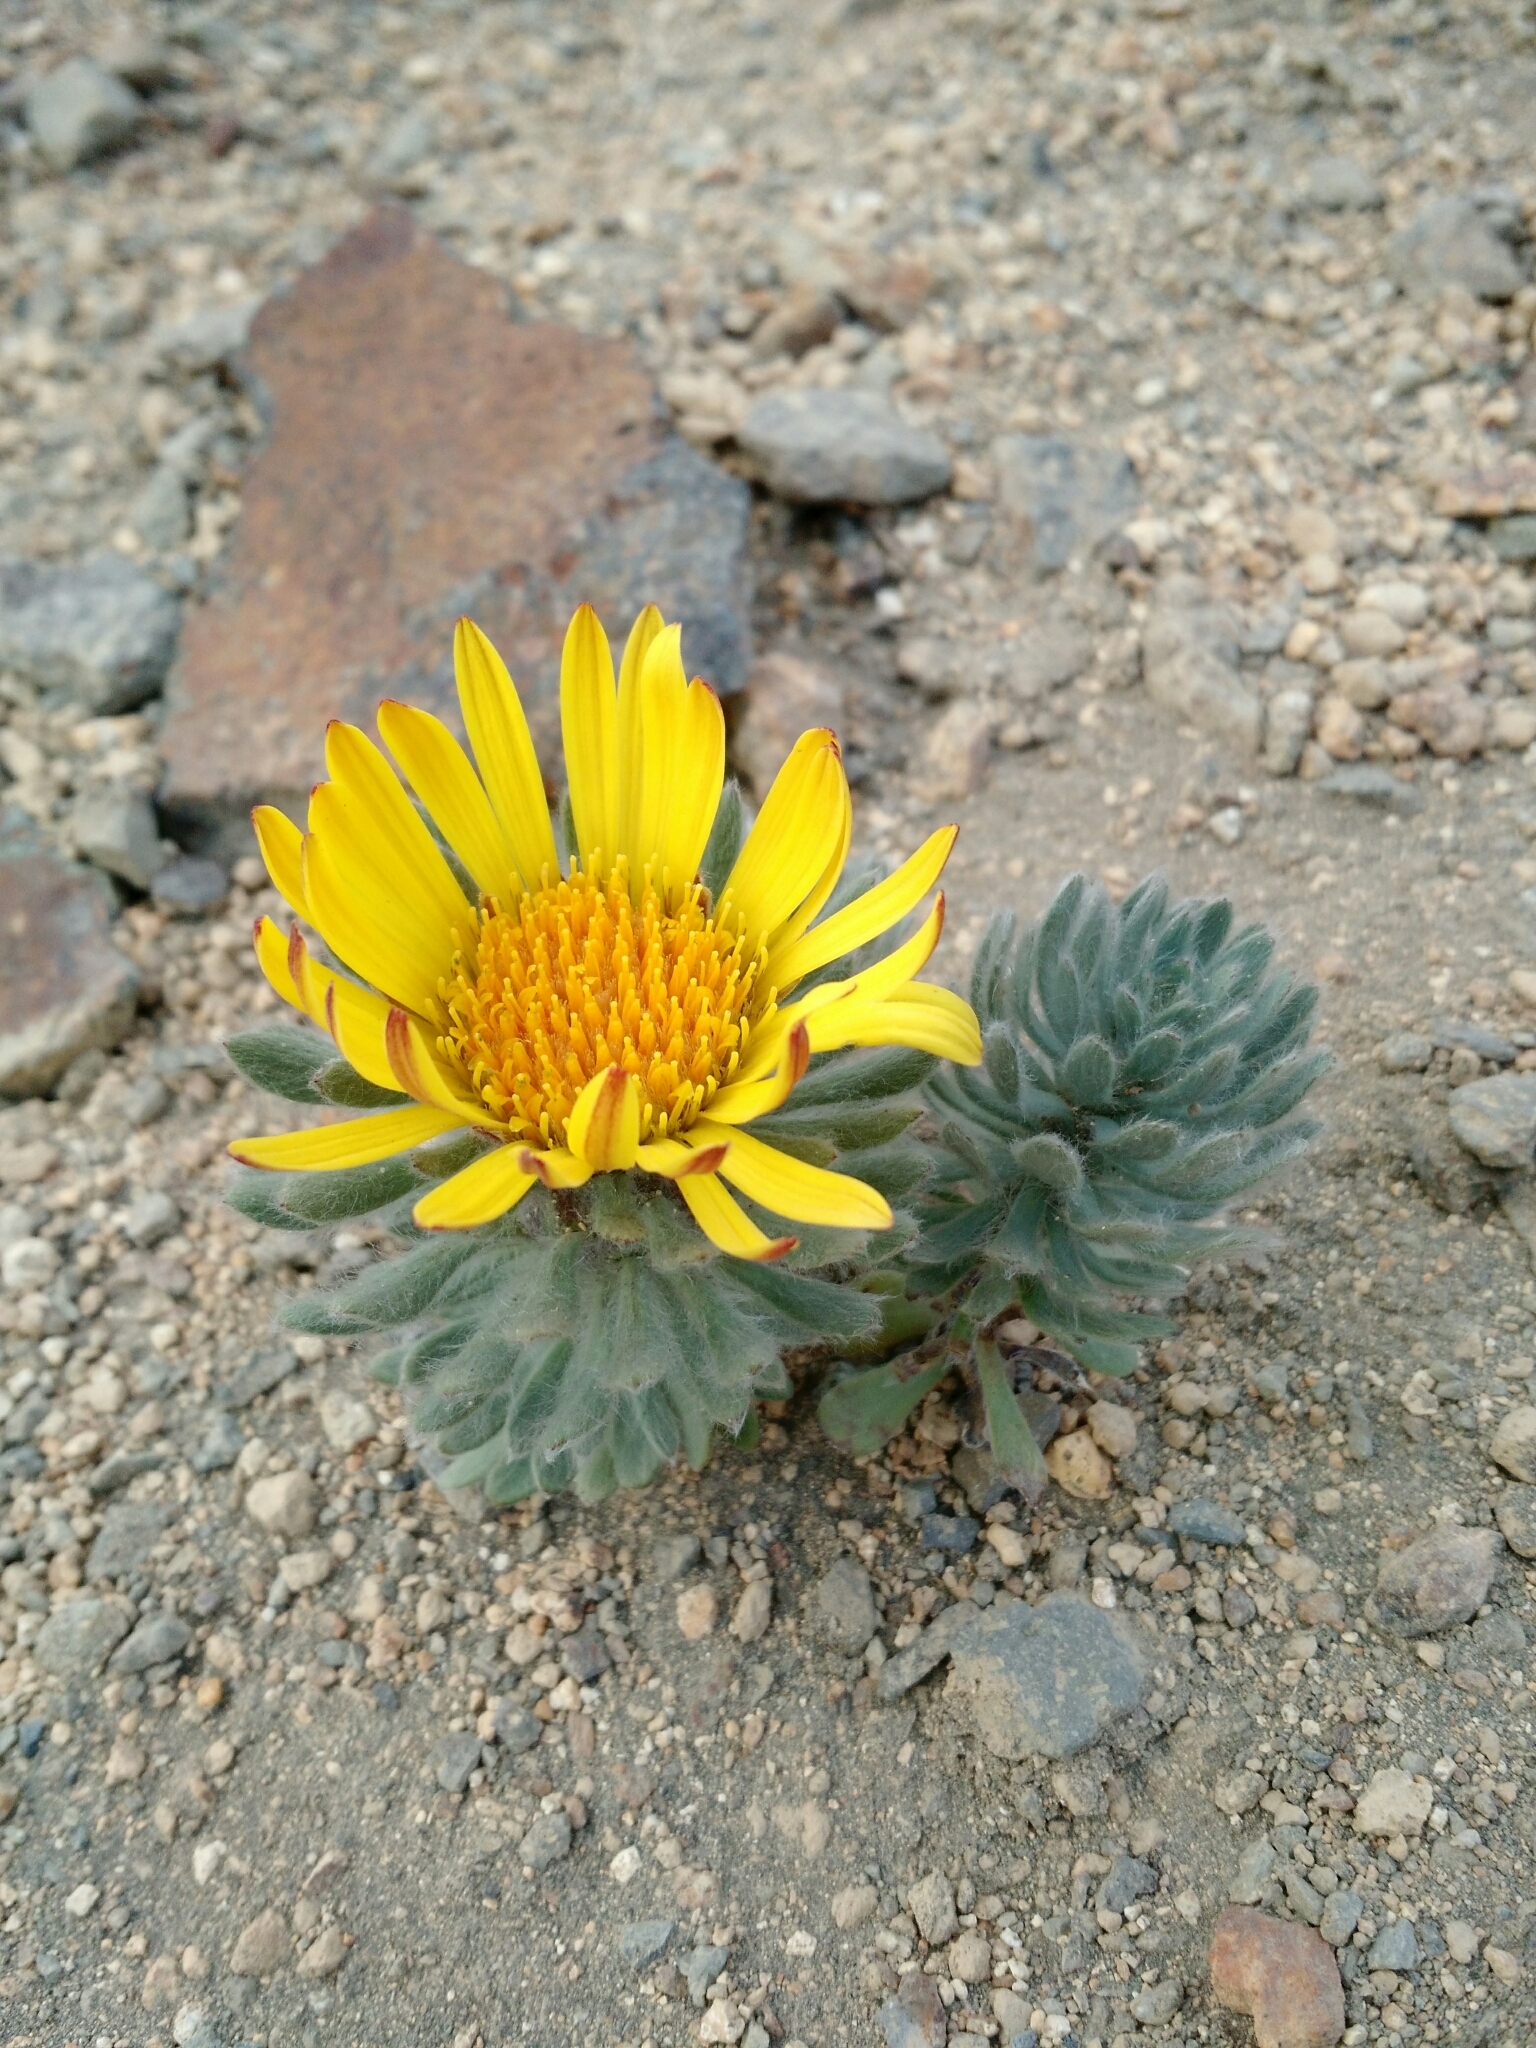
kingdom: Plantae
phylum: Tracheophyta
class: Magnoliopsida
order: Asterales
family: Asteraceae
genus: Chaetanthera
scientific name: Chaetanthera villosa
